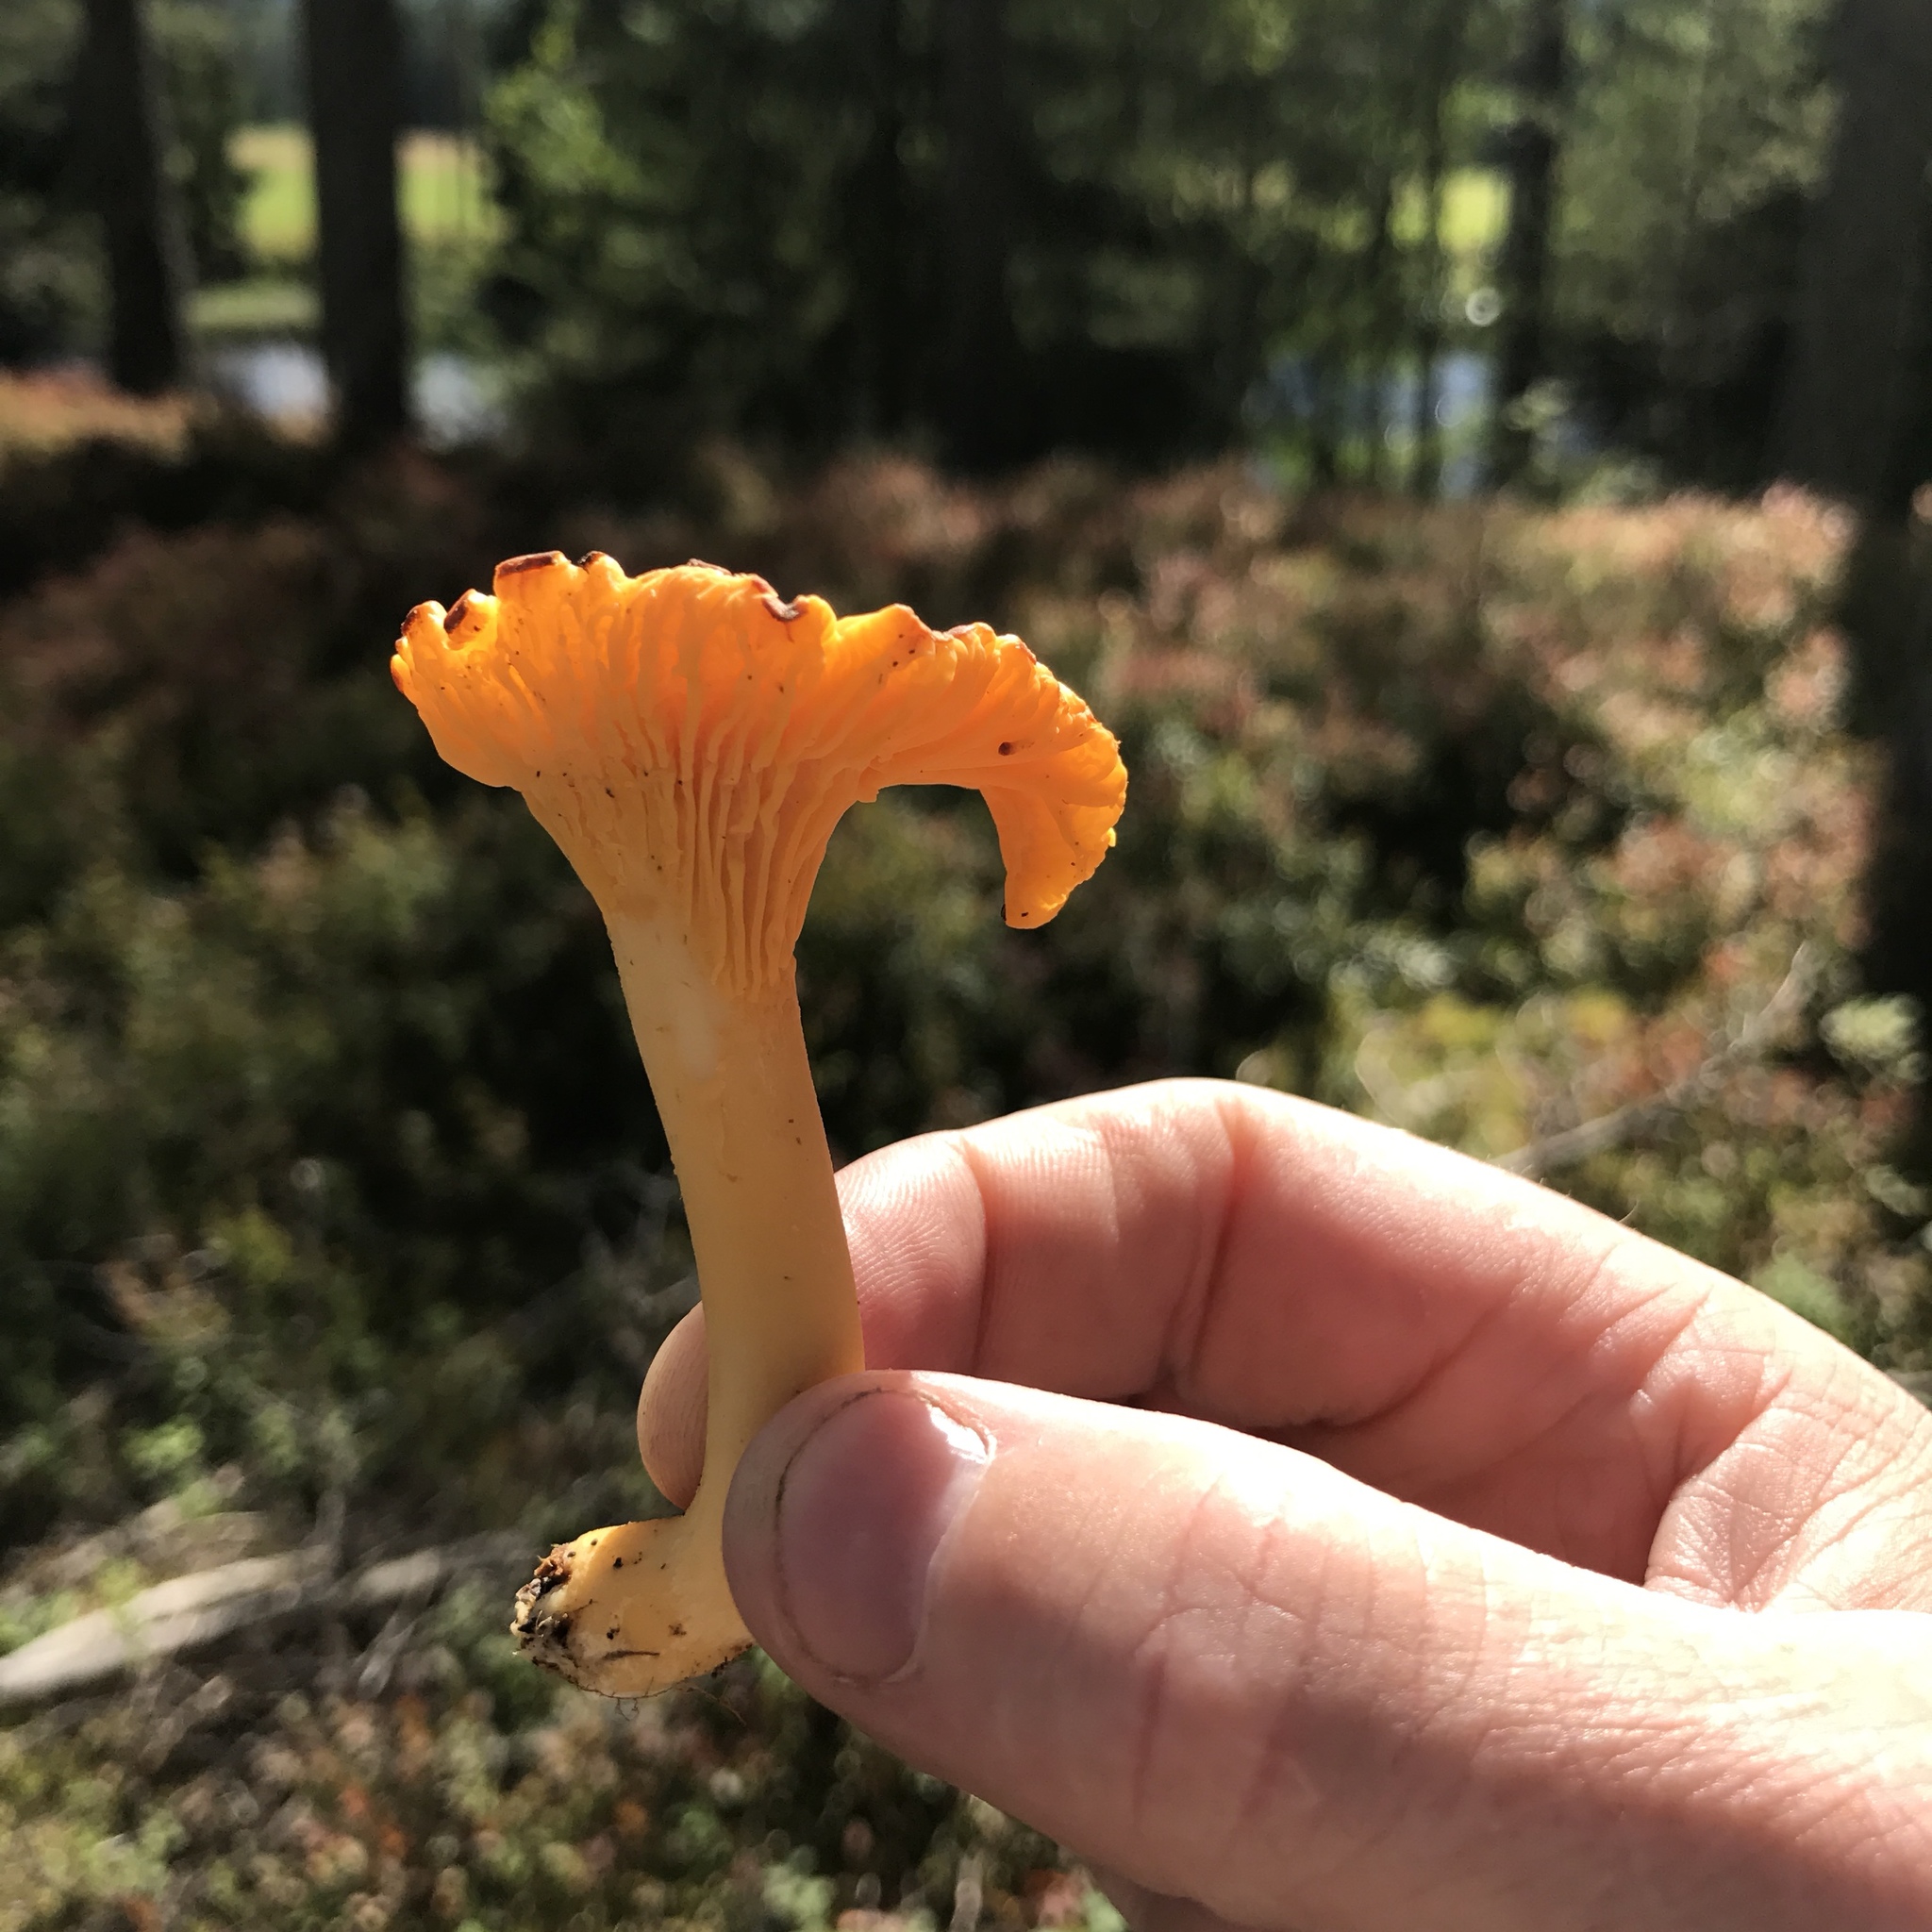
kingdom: Fungi
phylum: Basidiomycota
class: Agaricomycetes
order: Cantharellales
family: Hydnaceae
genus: Cantharellus
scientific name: Cantharellus cibarius
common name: Chanterelle
